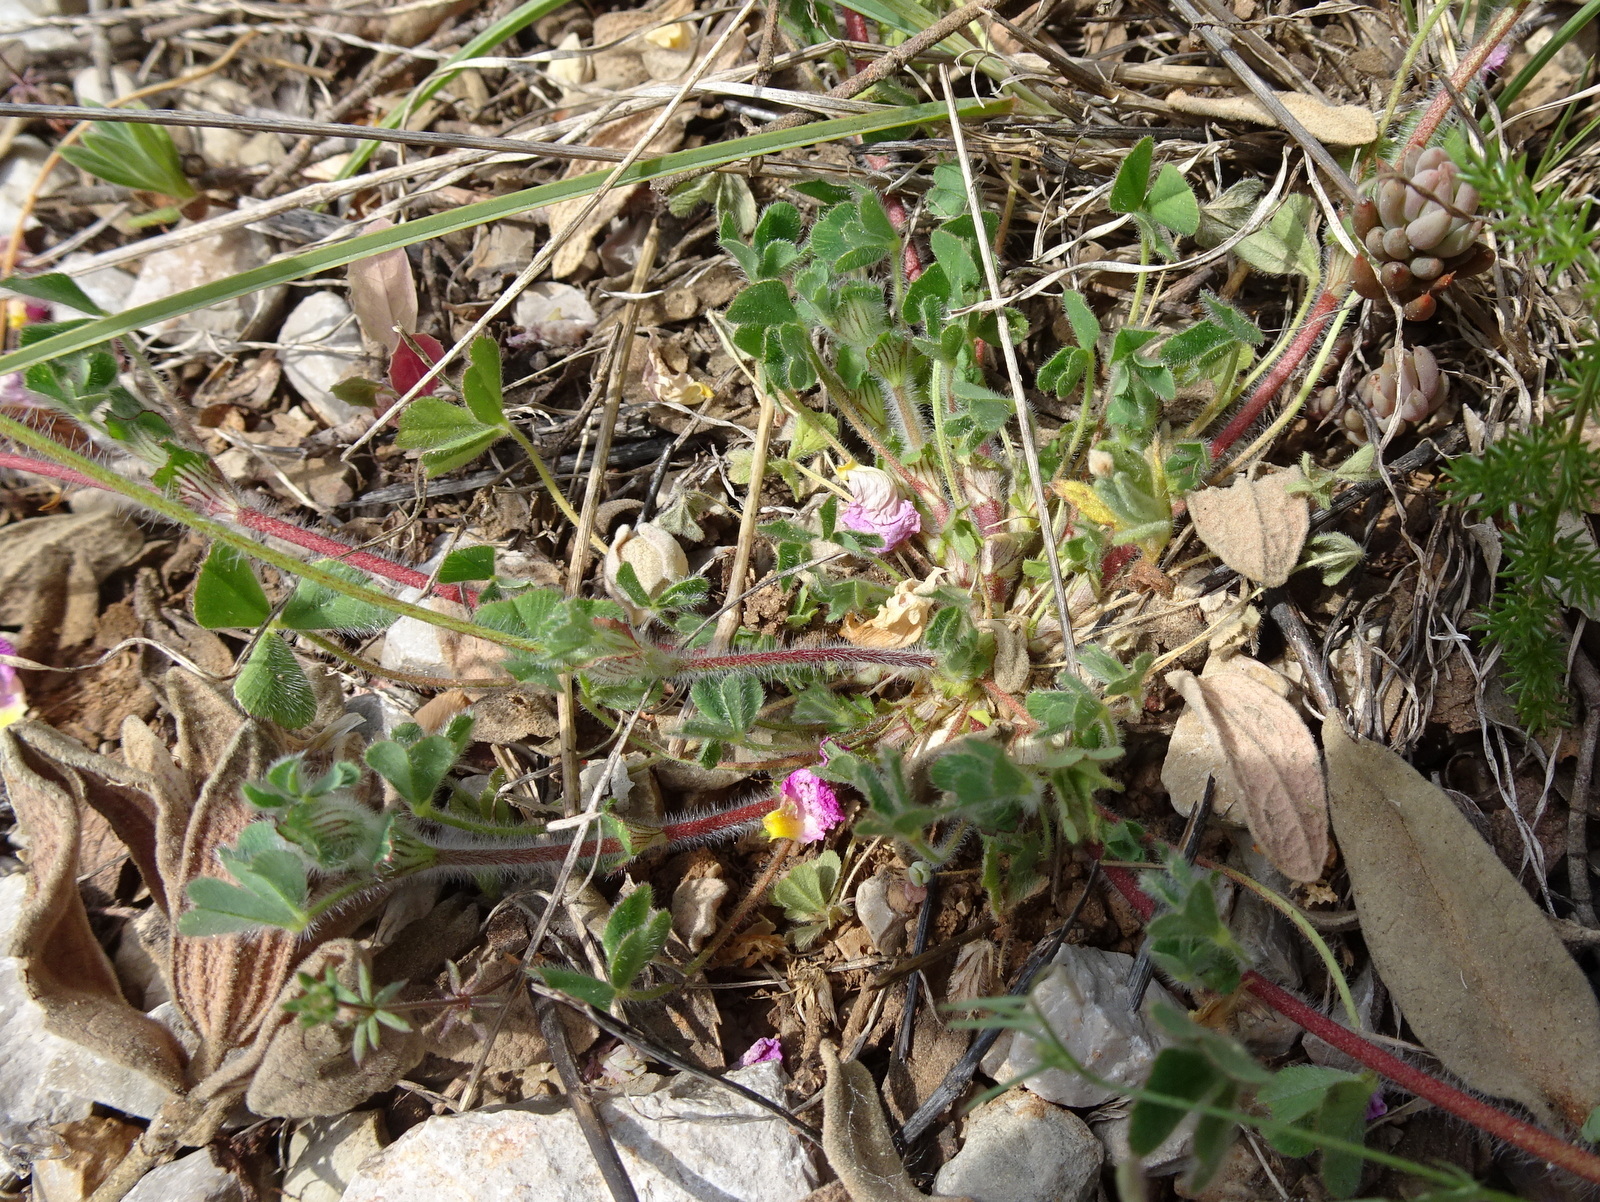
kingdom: Plantae
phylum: Tracheophyta
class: Magnoliopsida
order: Fabales
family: Fabaceae
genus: Trifolium
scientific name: Trifolium stellatum
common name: Starry clover
